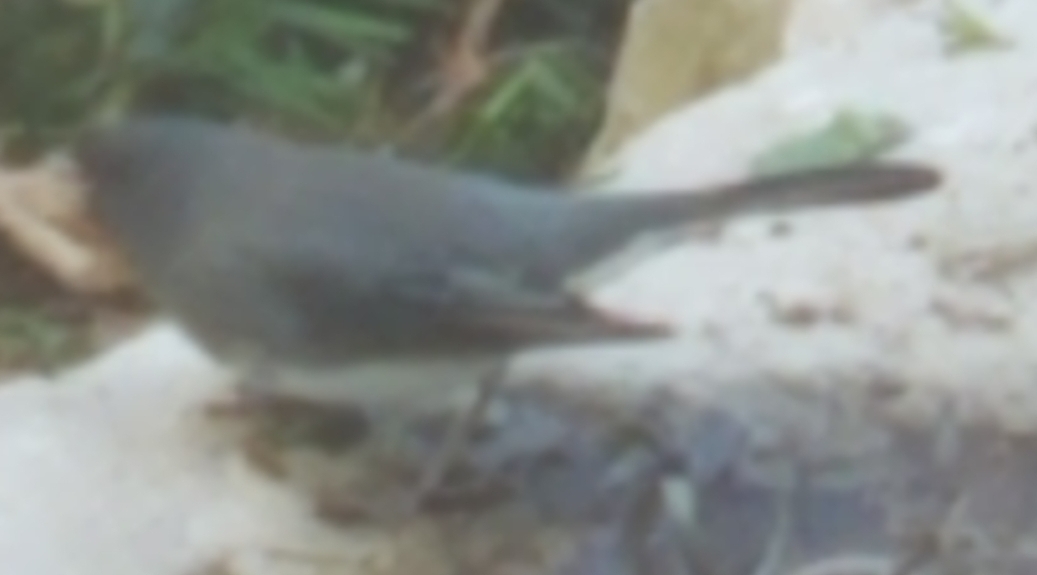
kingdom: Animalia
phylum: Chordata
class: Aves
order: Passeriformes
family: Passerellidae
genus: Junco
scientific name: Junco hyemalis
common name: Dark-eyed junco
